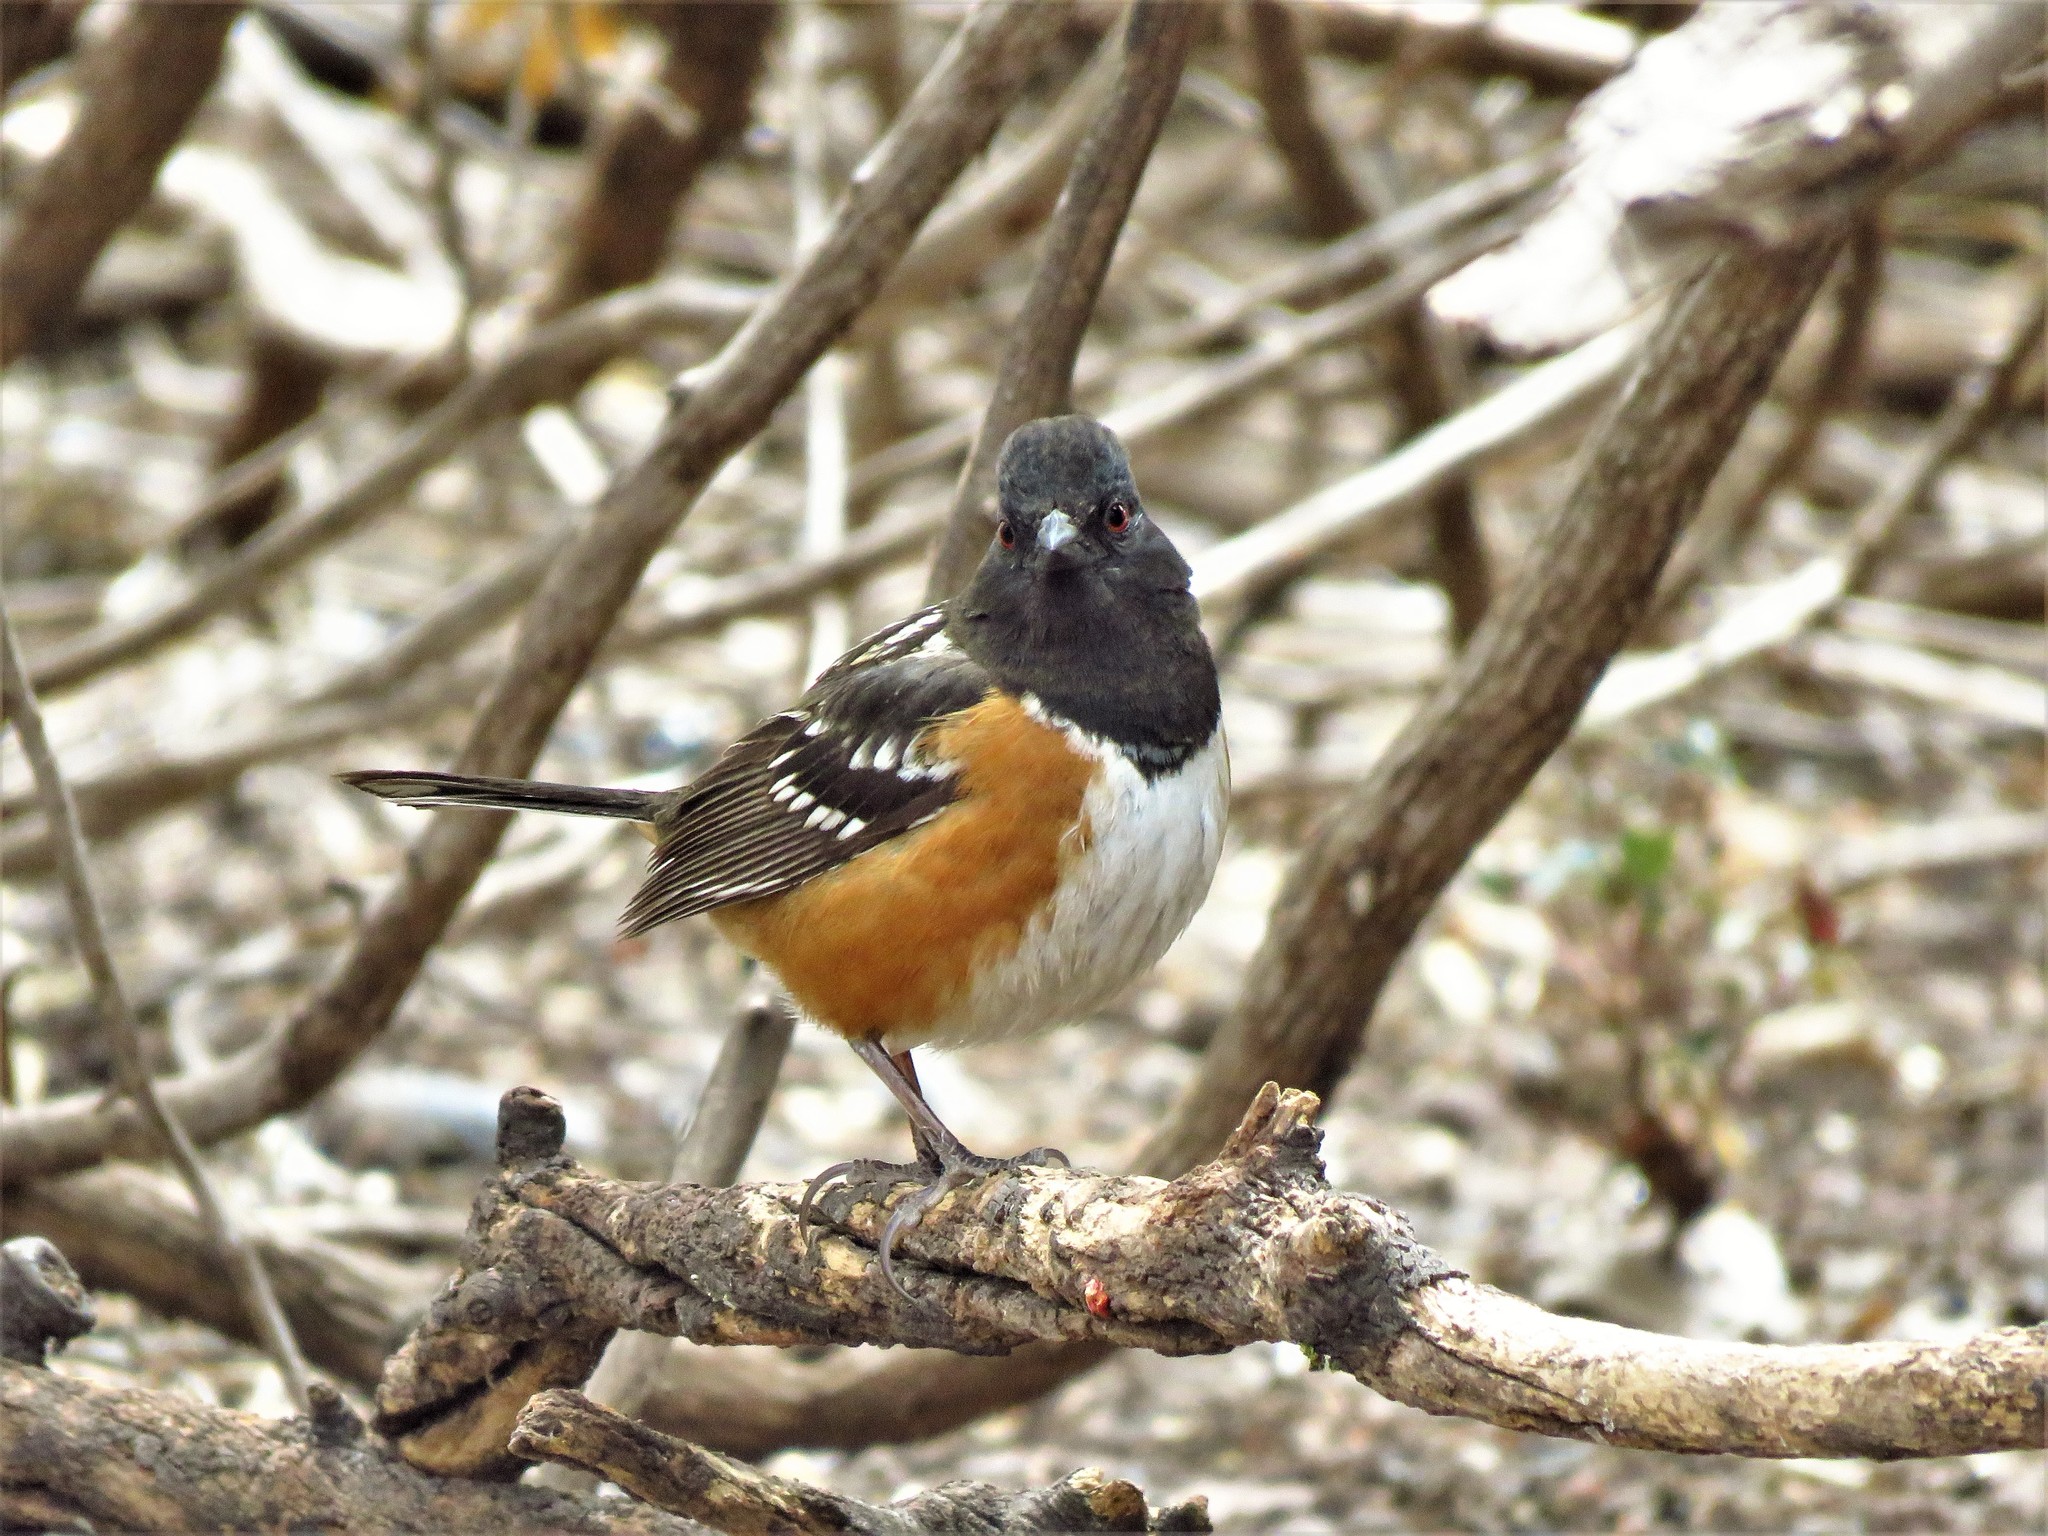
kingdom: Animalia
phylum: Chordata
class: Aves
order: Passeriformes
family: Passerellidae
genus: Pipilo
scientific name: Pipilo maculatus
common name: Spotted towhee
